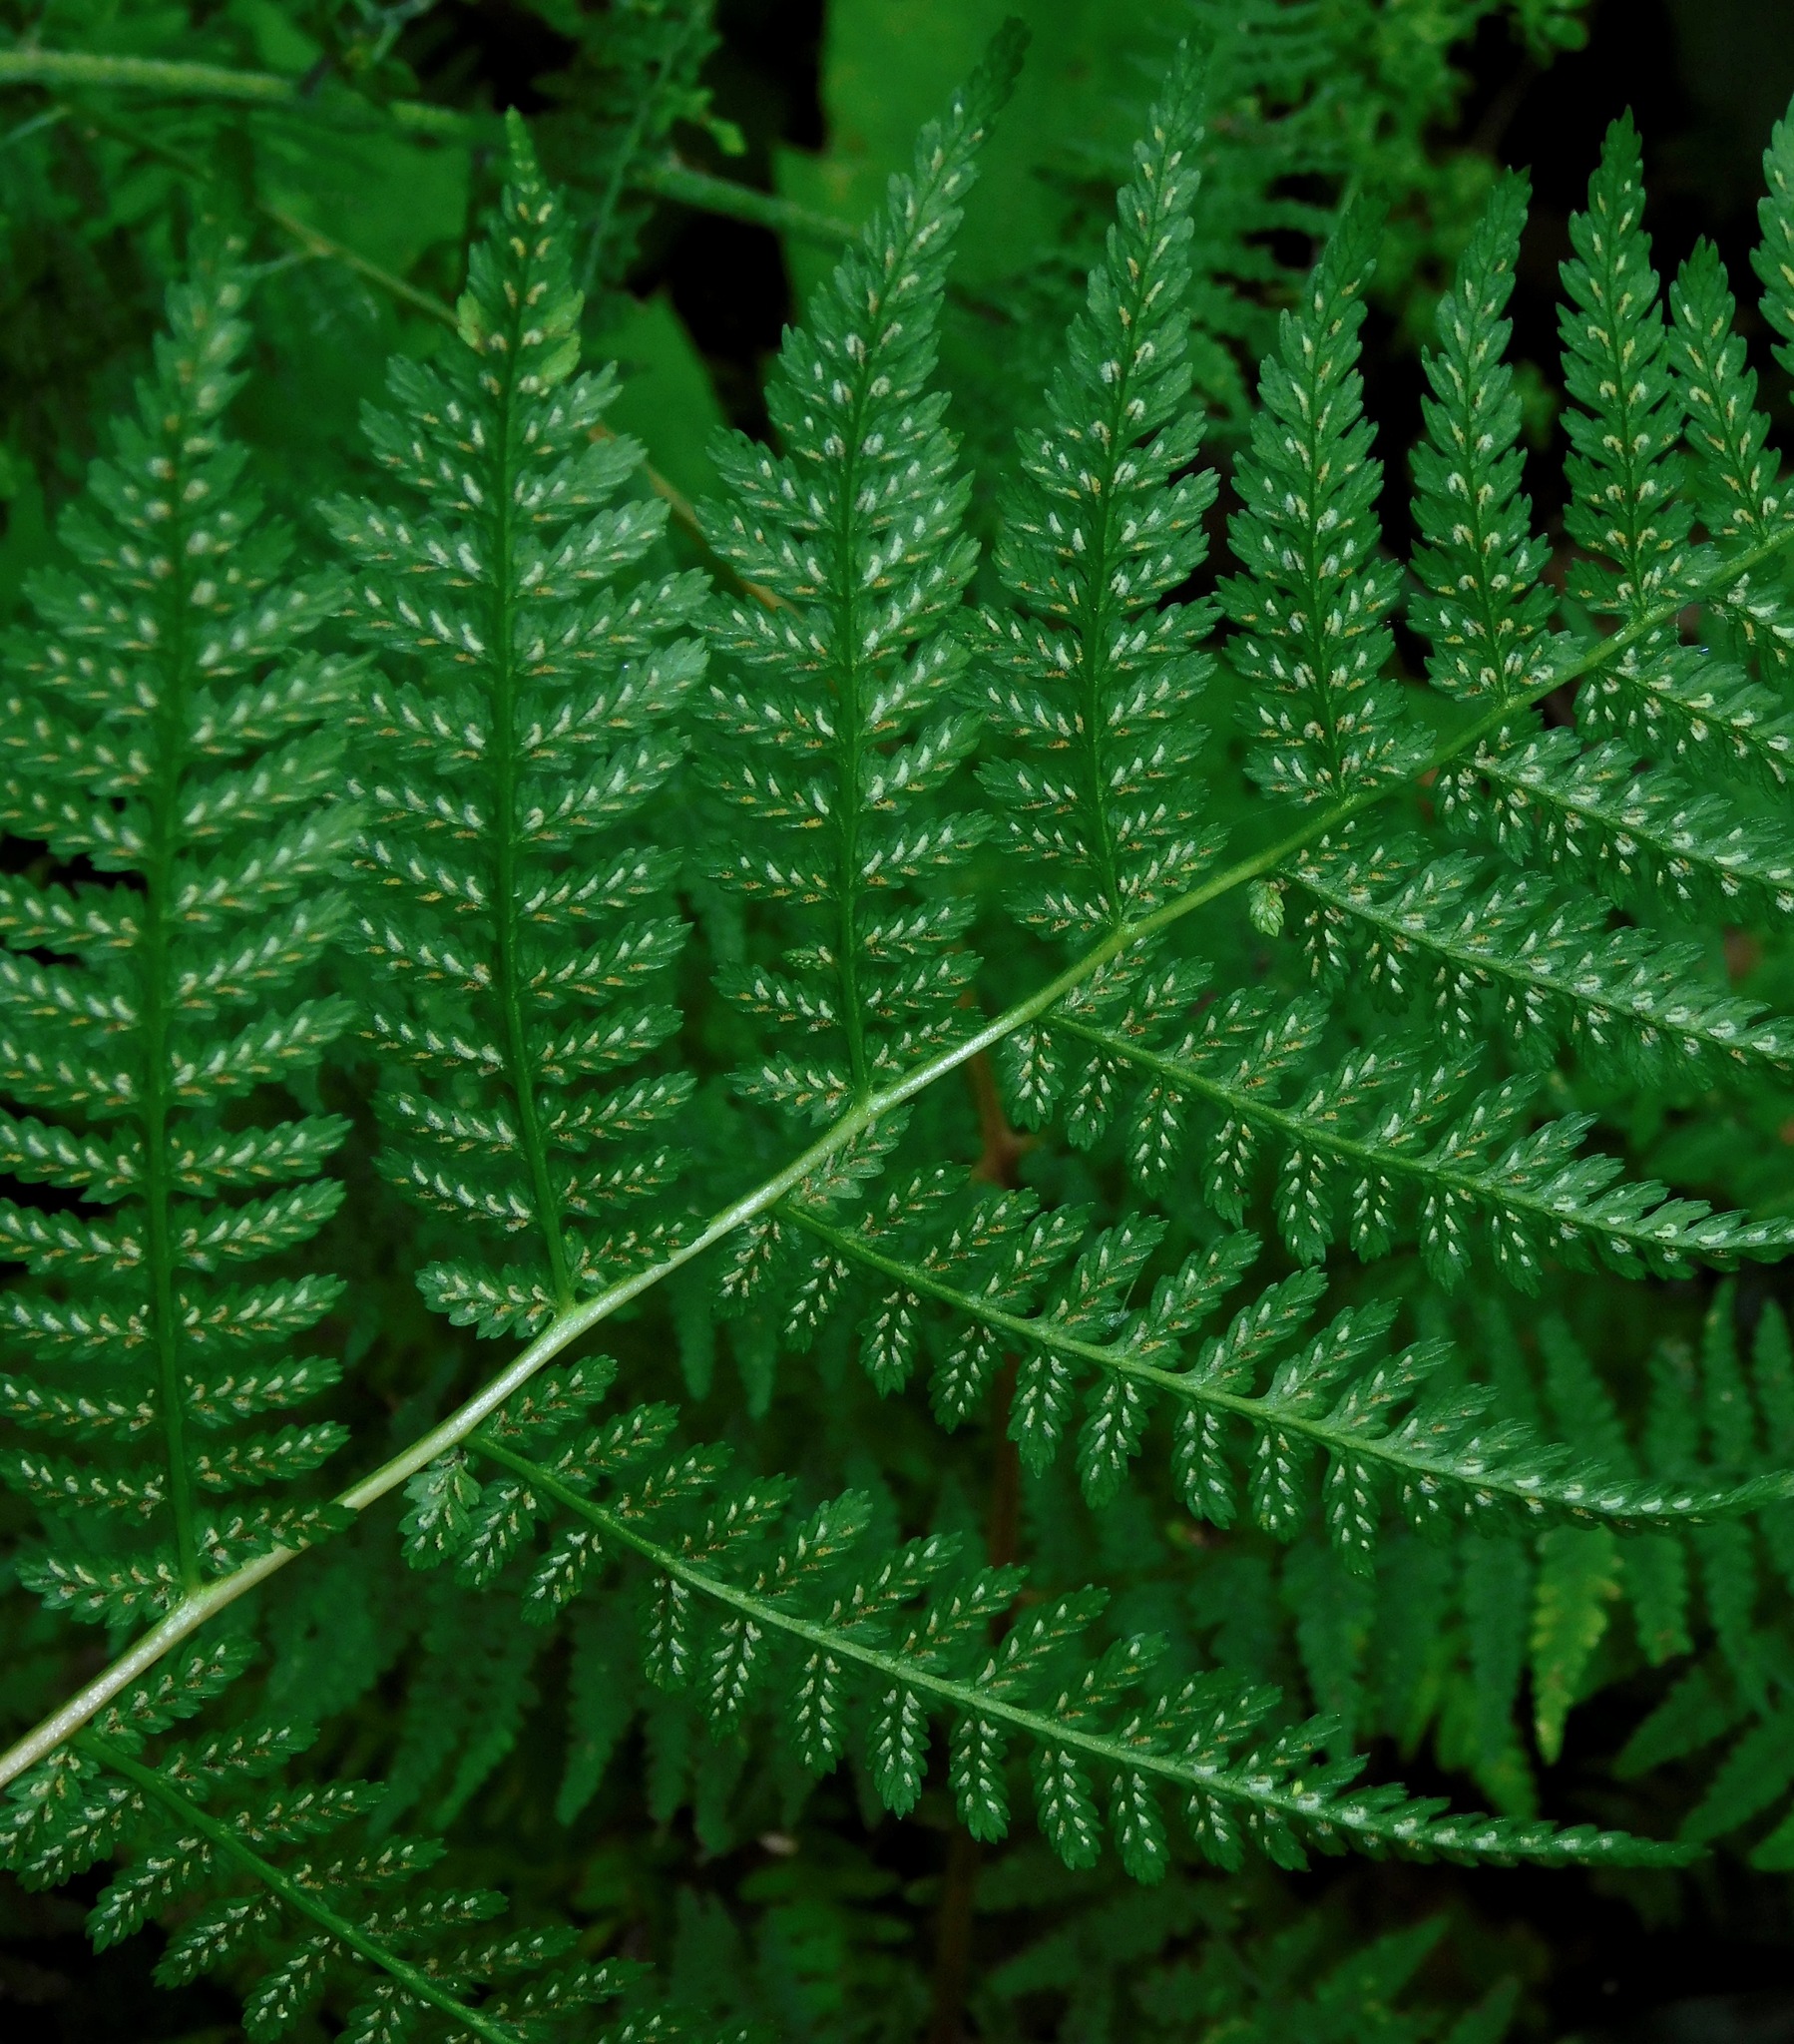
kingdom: Plantae
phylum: Tracheophyta
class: Polypodiopsida
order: Polypodiales
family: Athyriaceae
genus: Athyrium
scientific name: Athyrium asplenioides
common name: Southern lady fern
